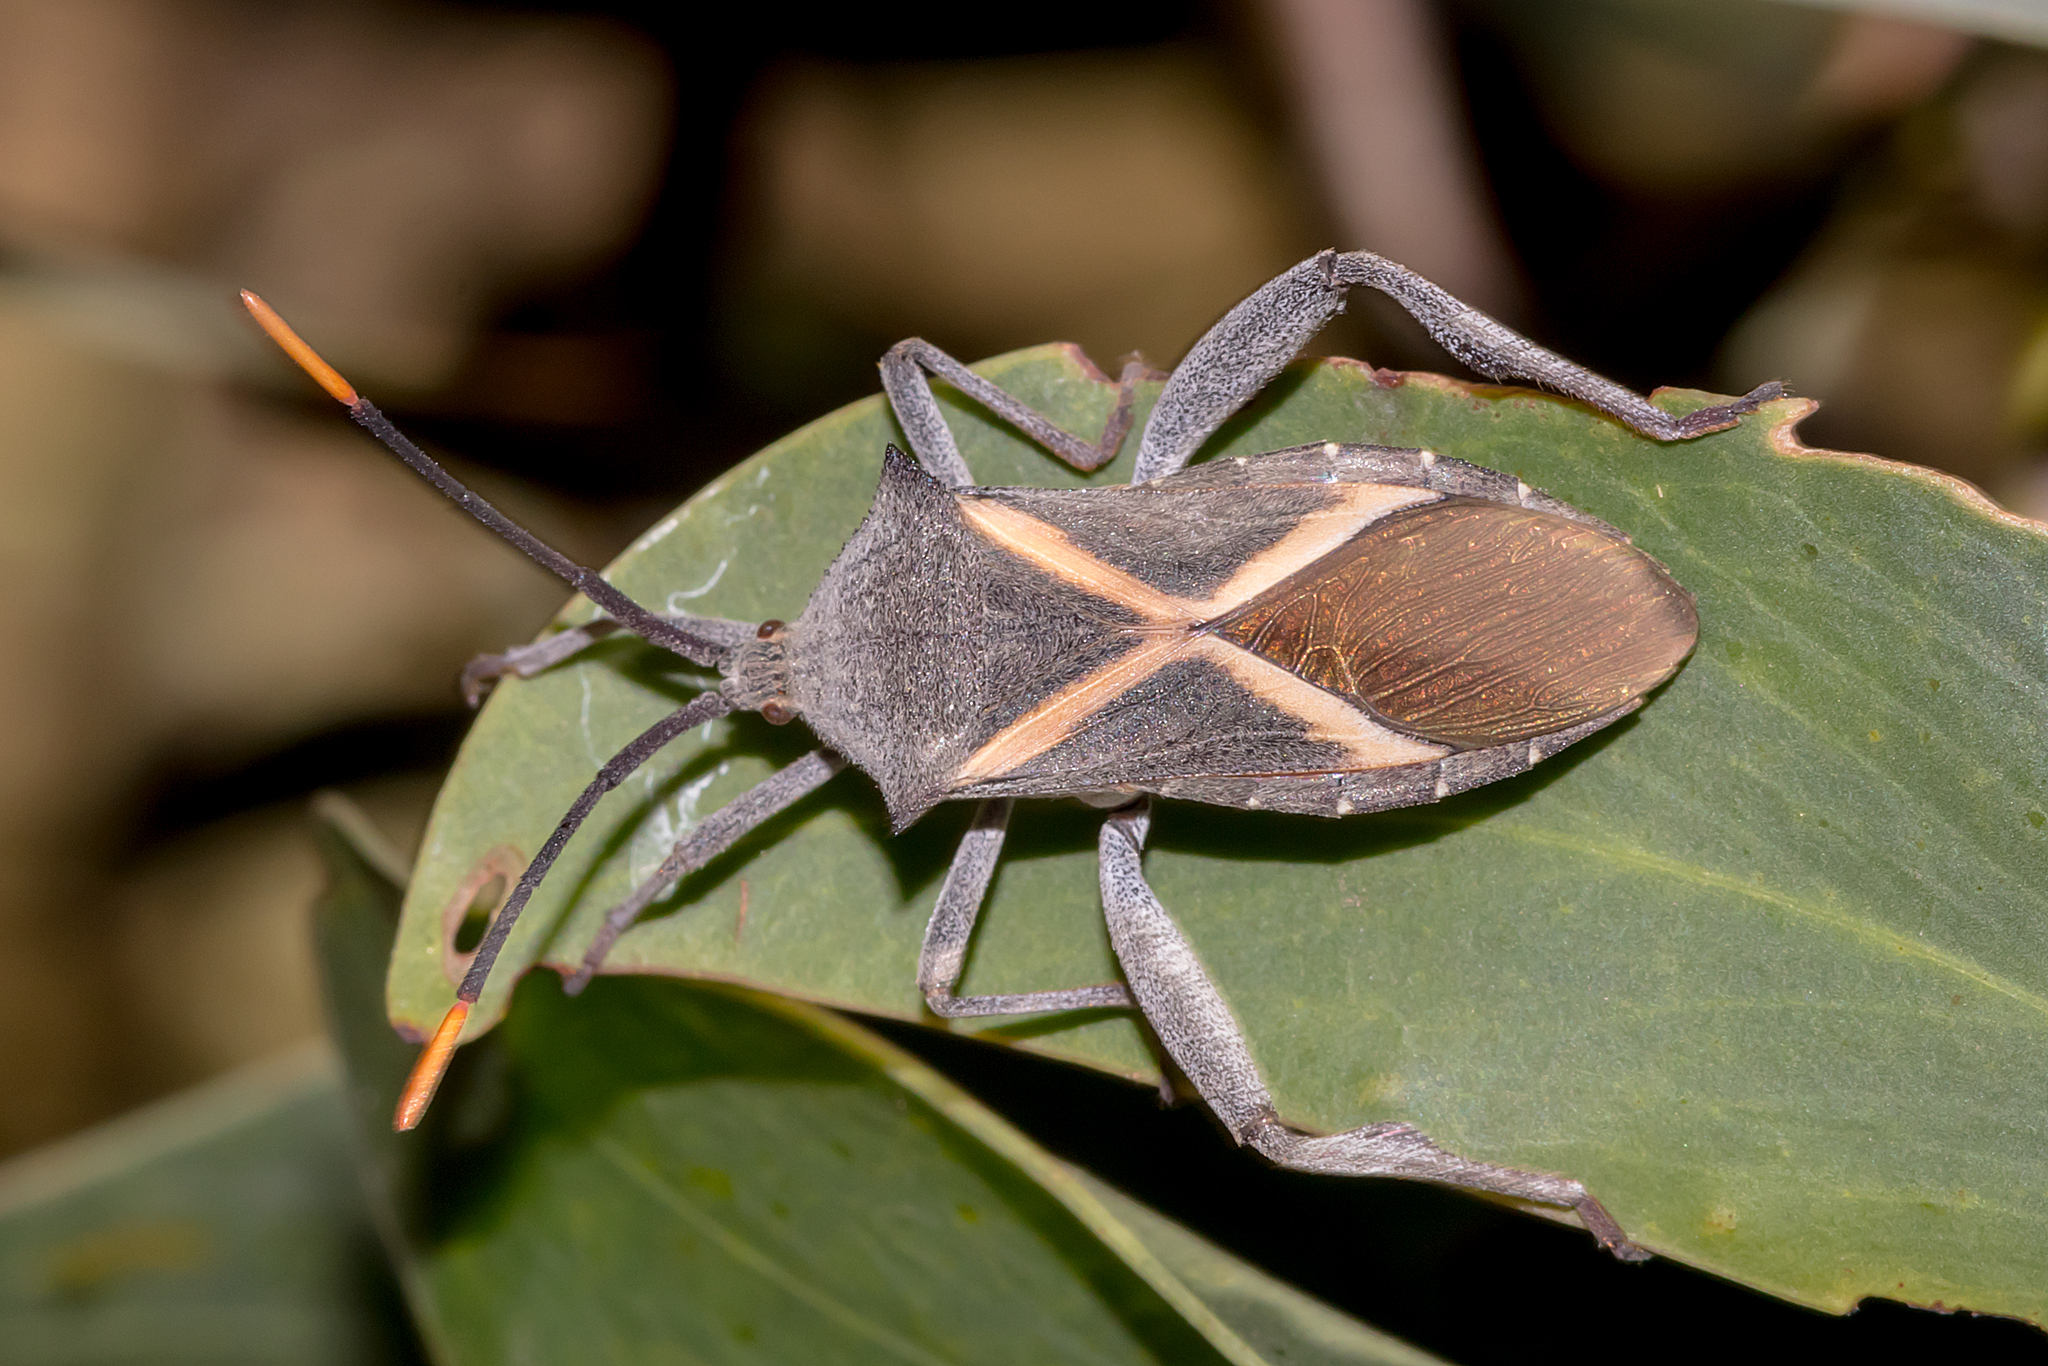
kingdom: Animalia
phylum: Arthropoda
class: Insecta
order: Hemiptera
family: Coreidae
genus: Mictis
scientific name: Mictis profana
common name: Crusader bug
